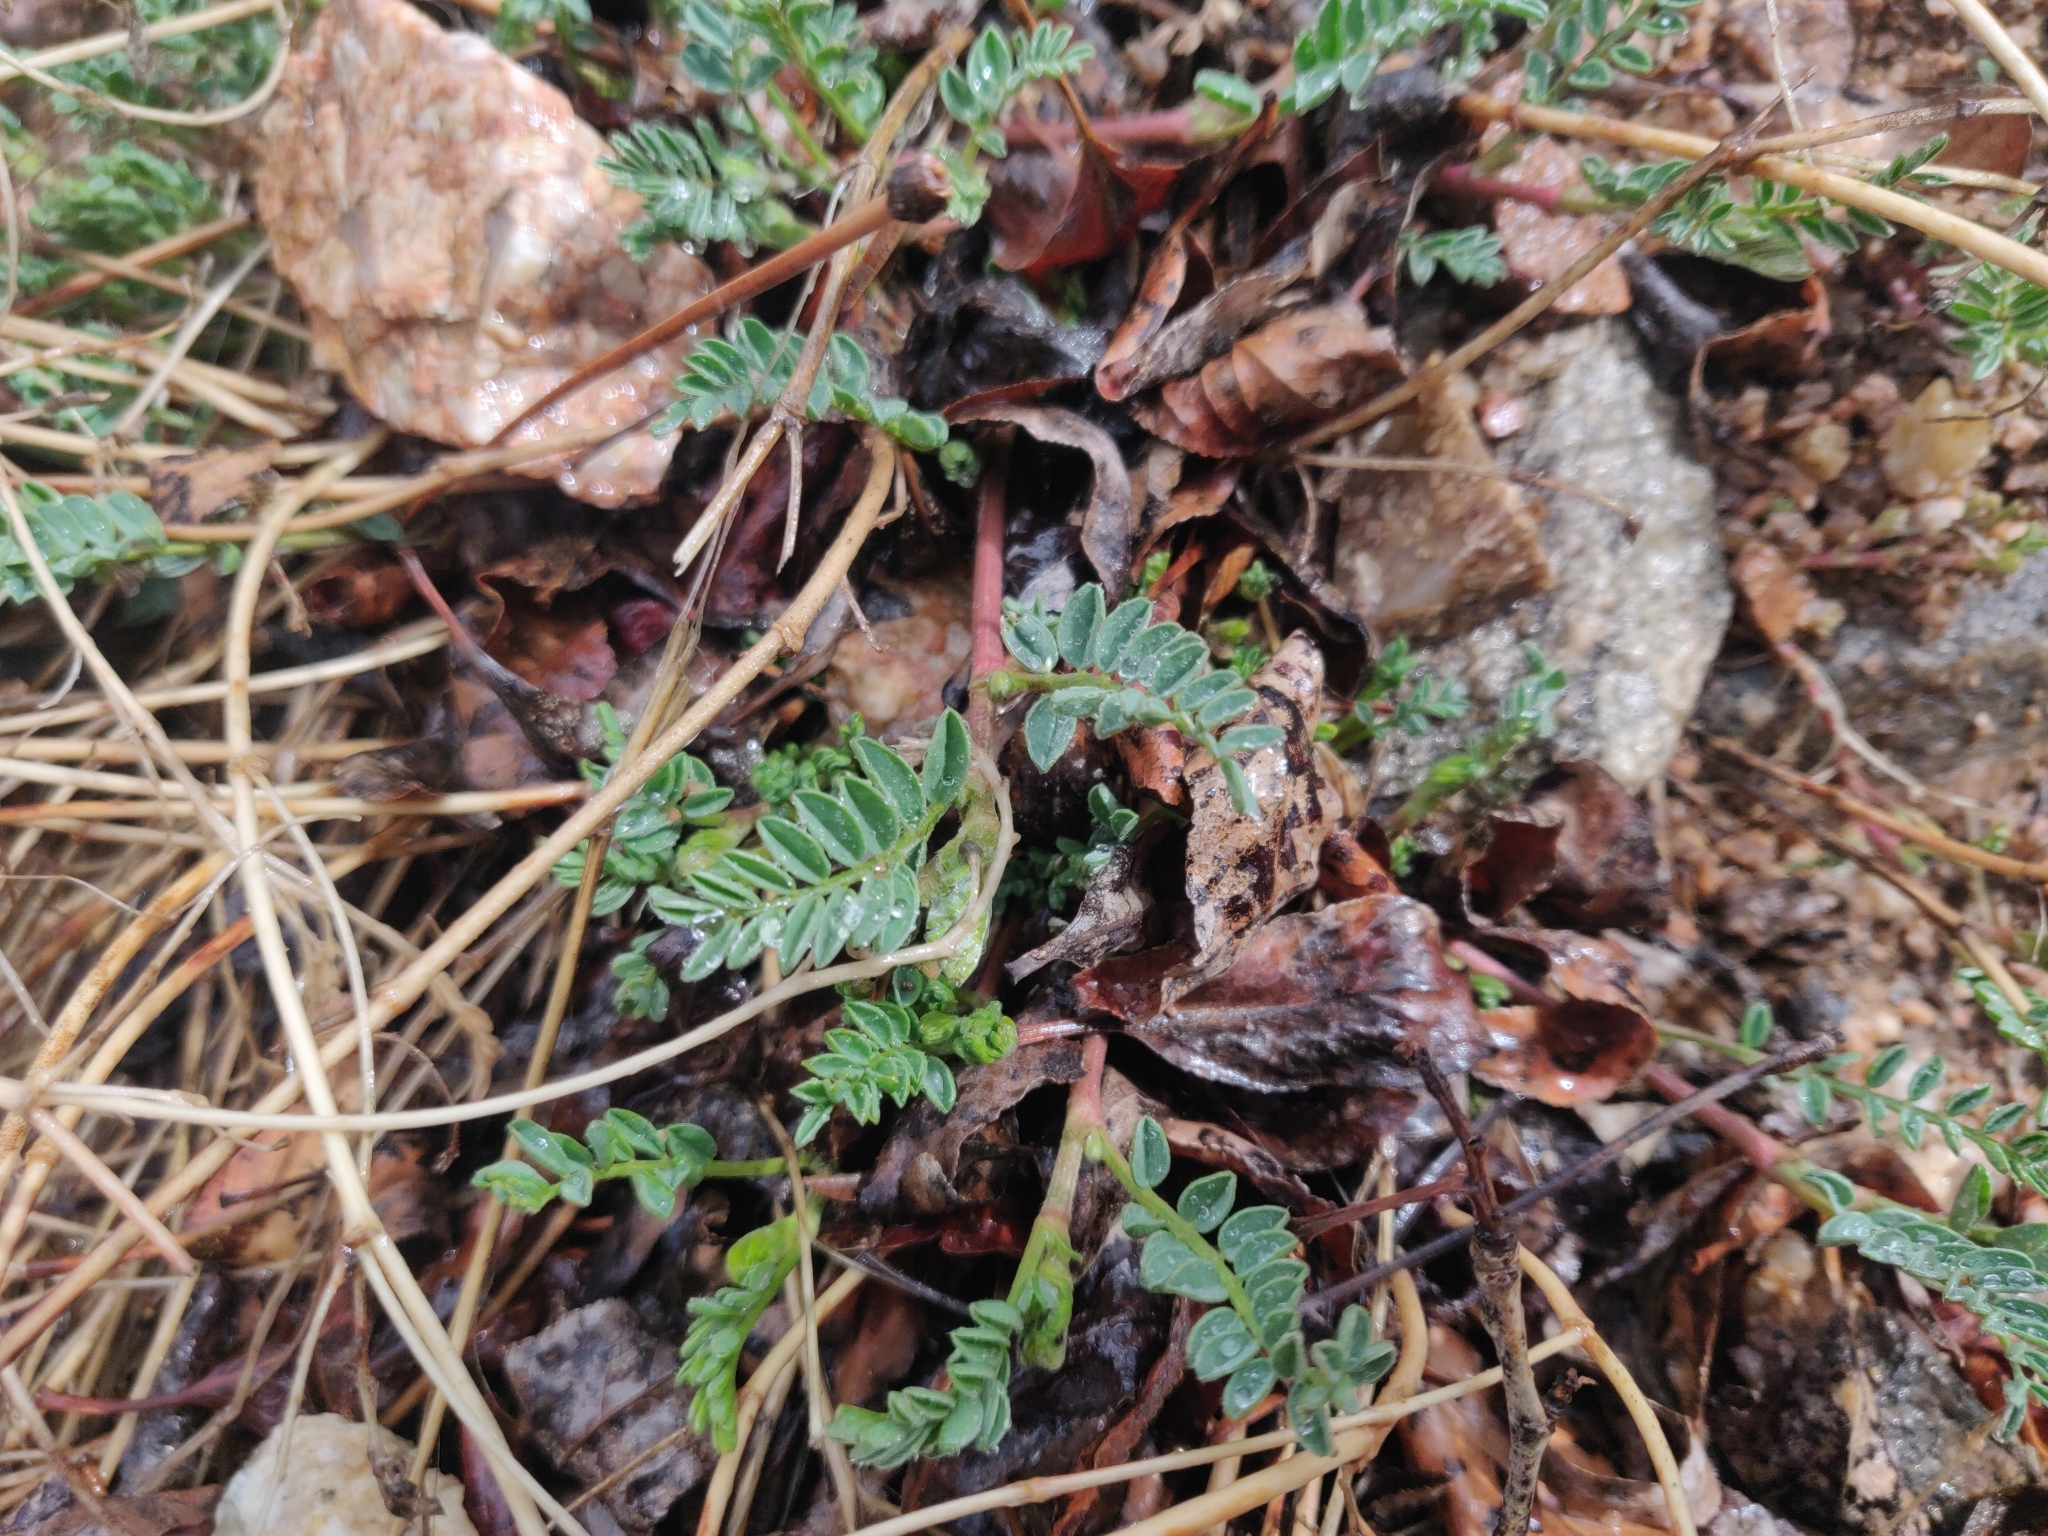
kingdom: Plantae
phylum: Tracheophyta
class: Magnoliopsida
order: Fabales
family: Fabaceae
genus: Astragalus
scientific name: Astragalus sparsiflorus
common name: Front range milkvetch
